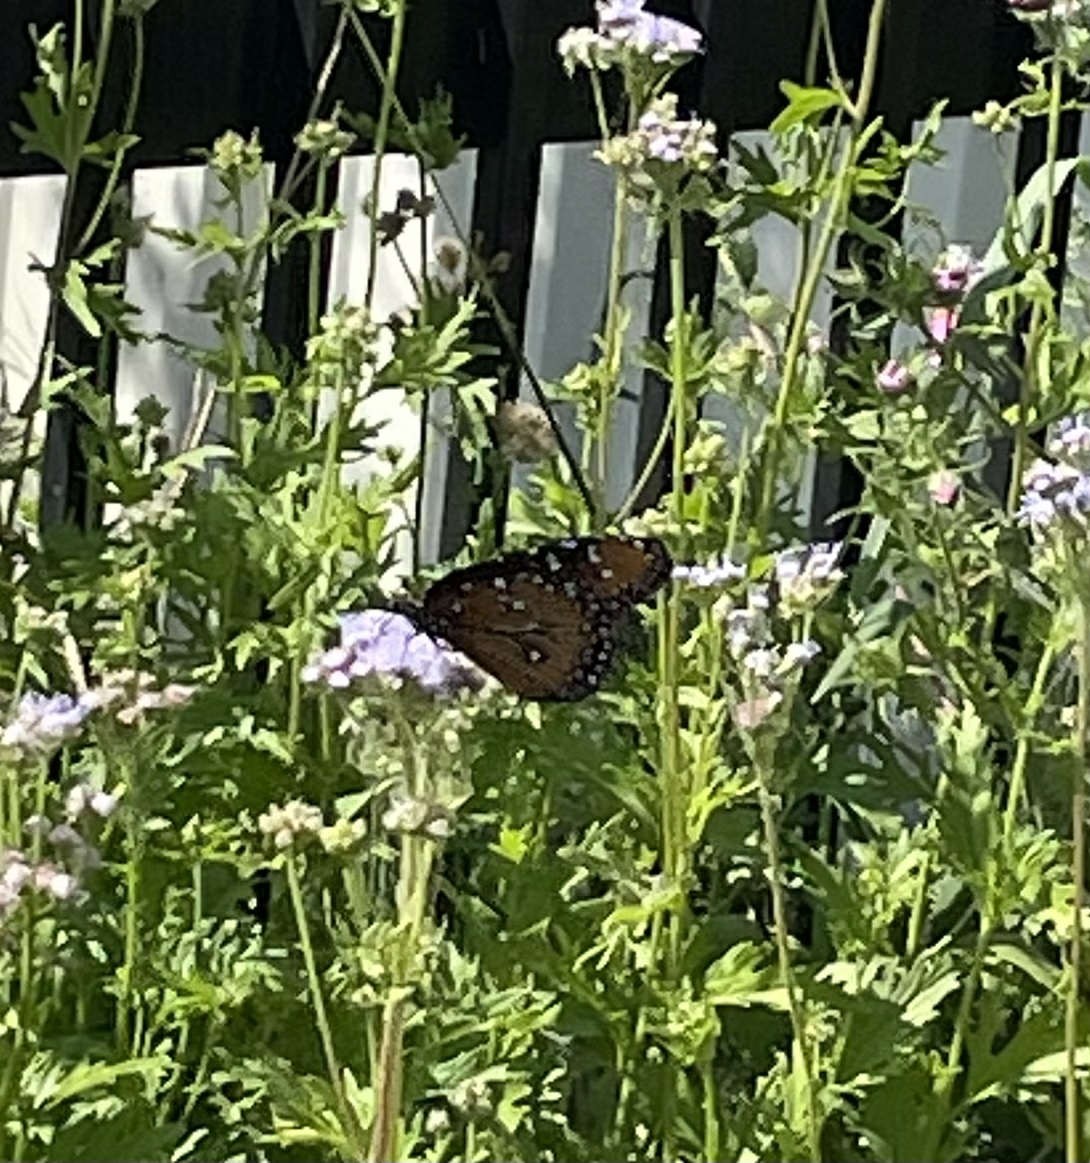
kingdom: Animalia
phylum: Arthropoda
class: Insecta
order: Lepidoptera
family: Nymphalidae
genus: Danaus
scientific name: Danaus gilippus
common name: Queen
